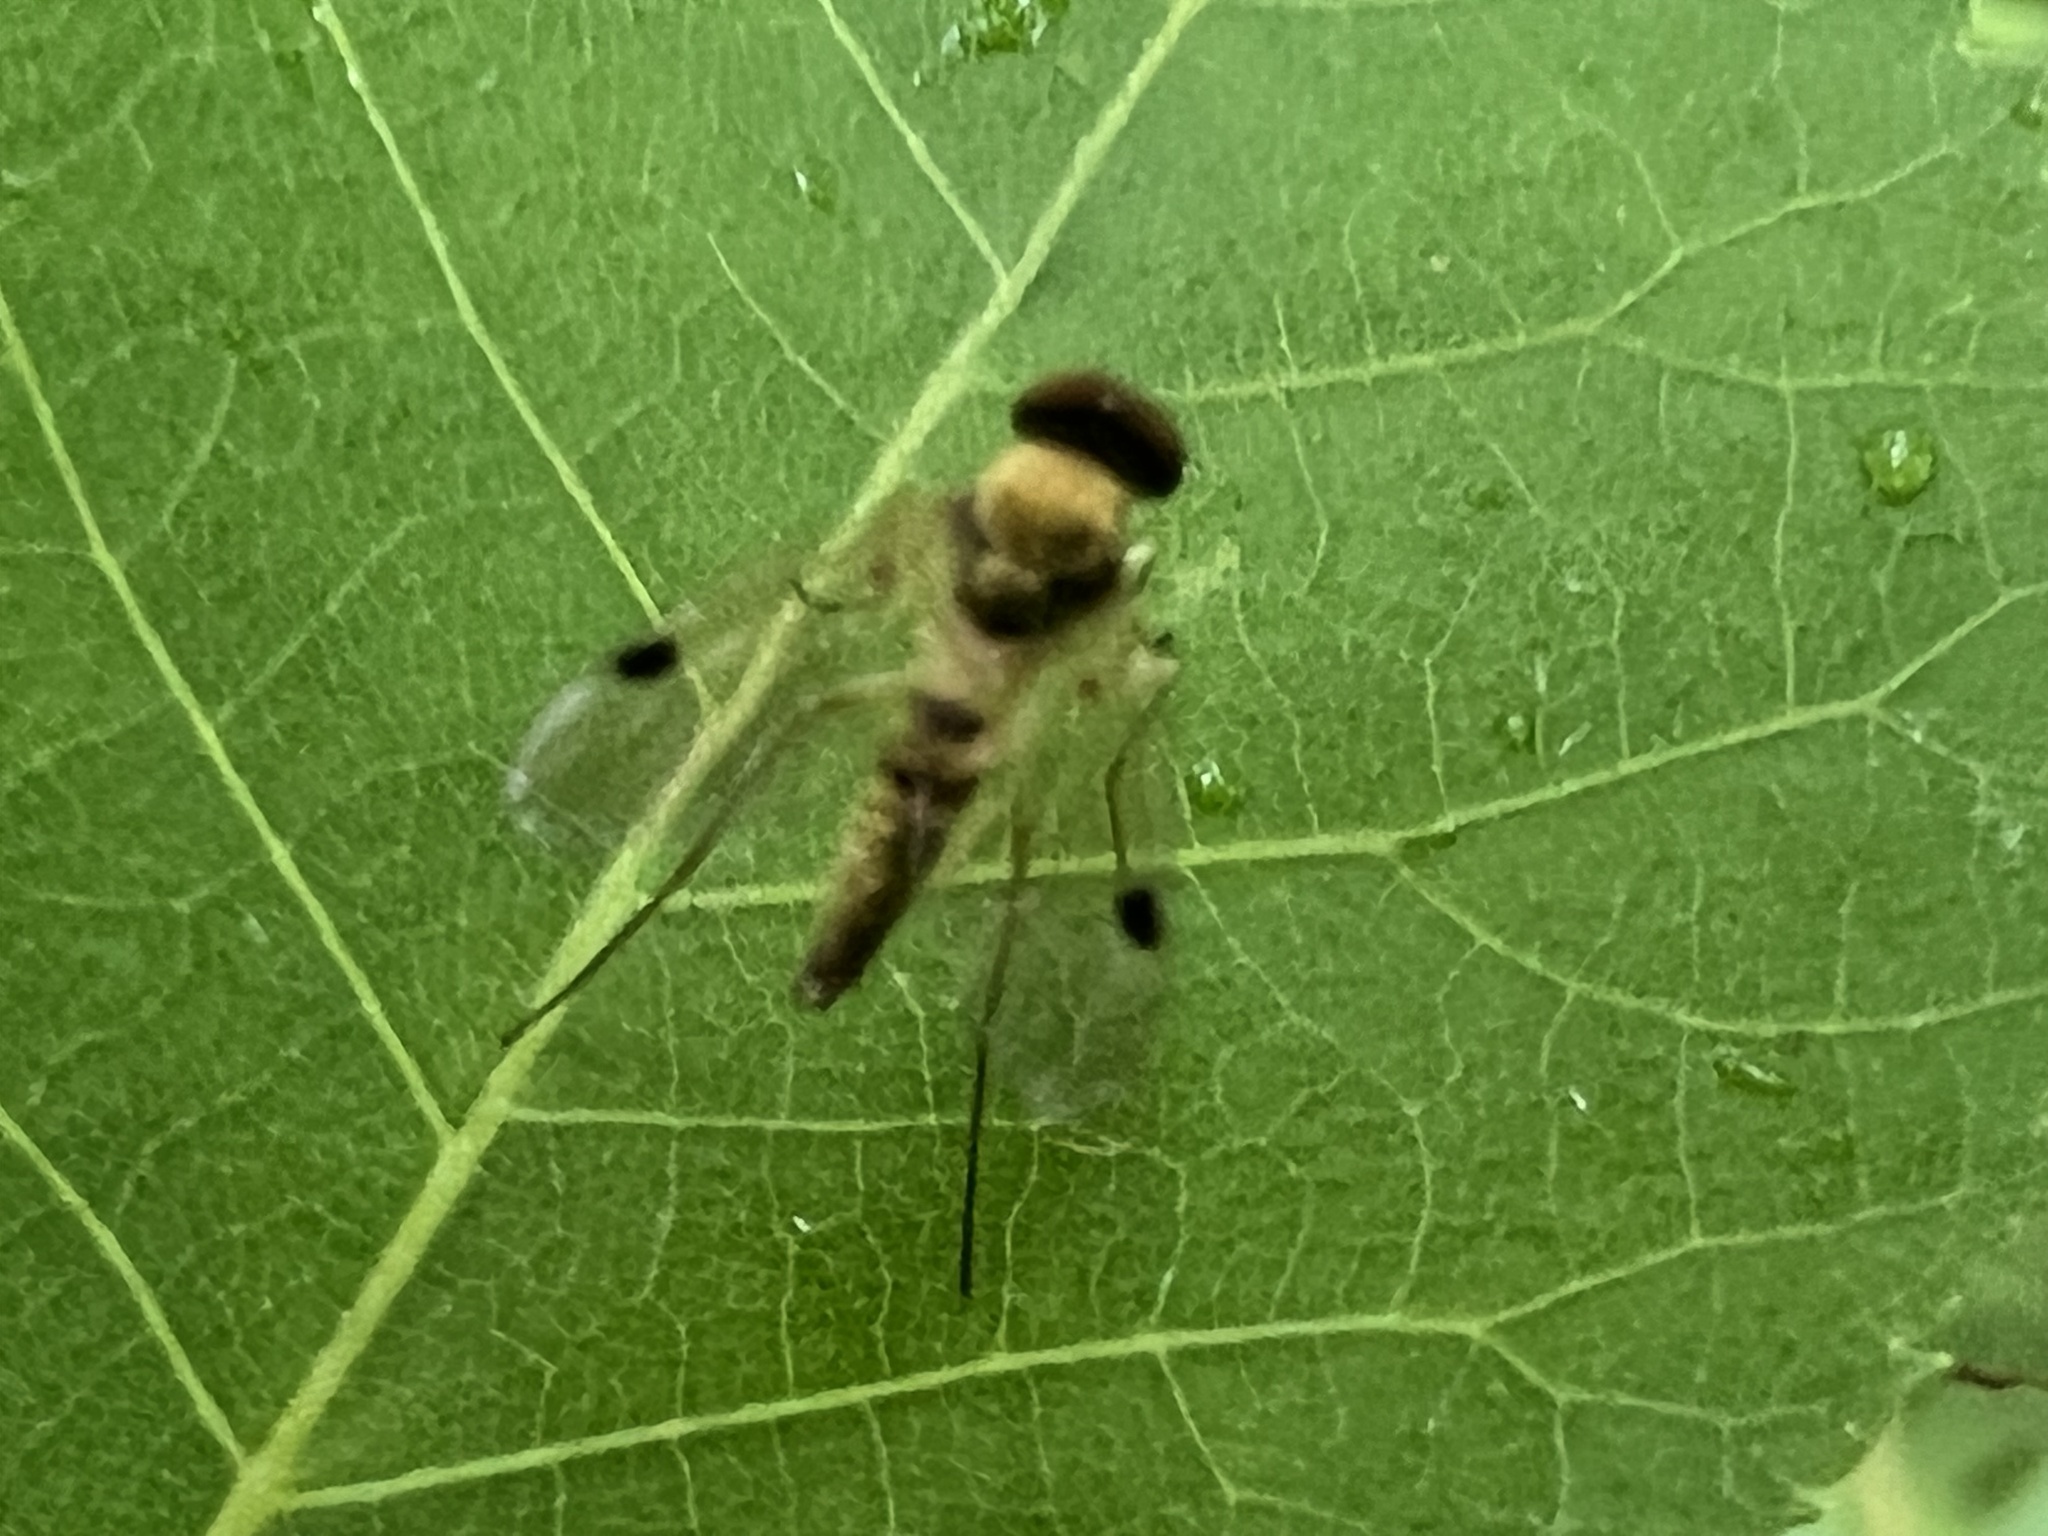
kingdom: Animalia
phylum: Arthropoda
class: Insecta
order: Diptera
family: Rhagionidae
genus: Chrysopilus
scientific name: Chrysopilus modestus
